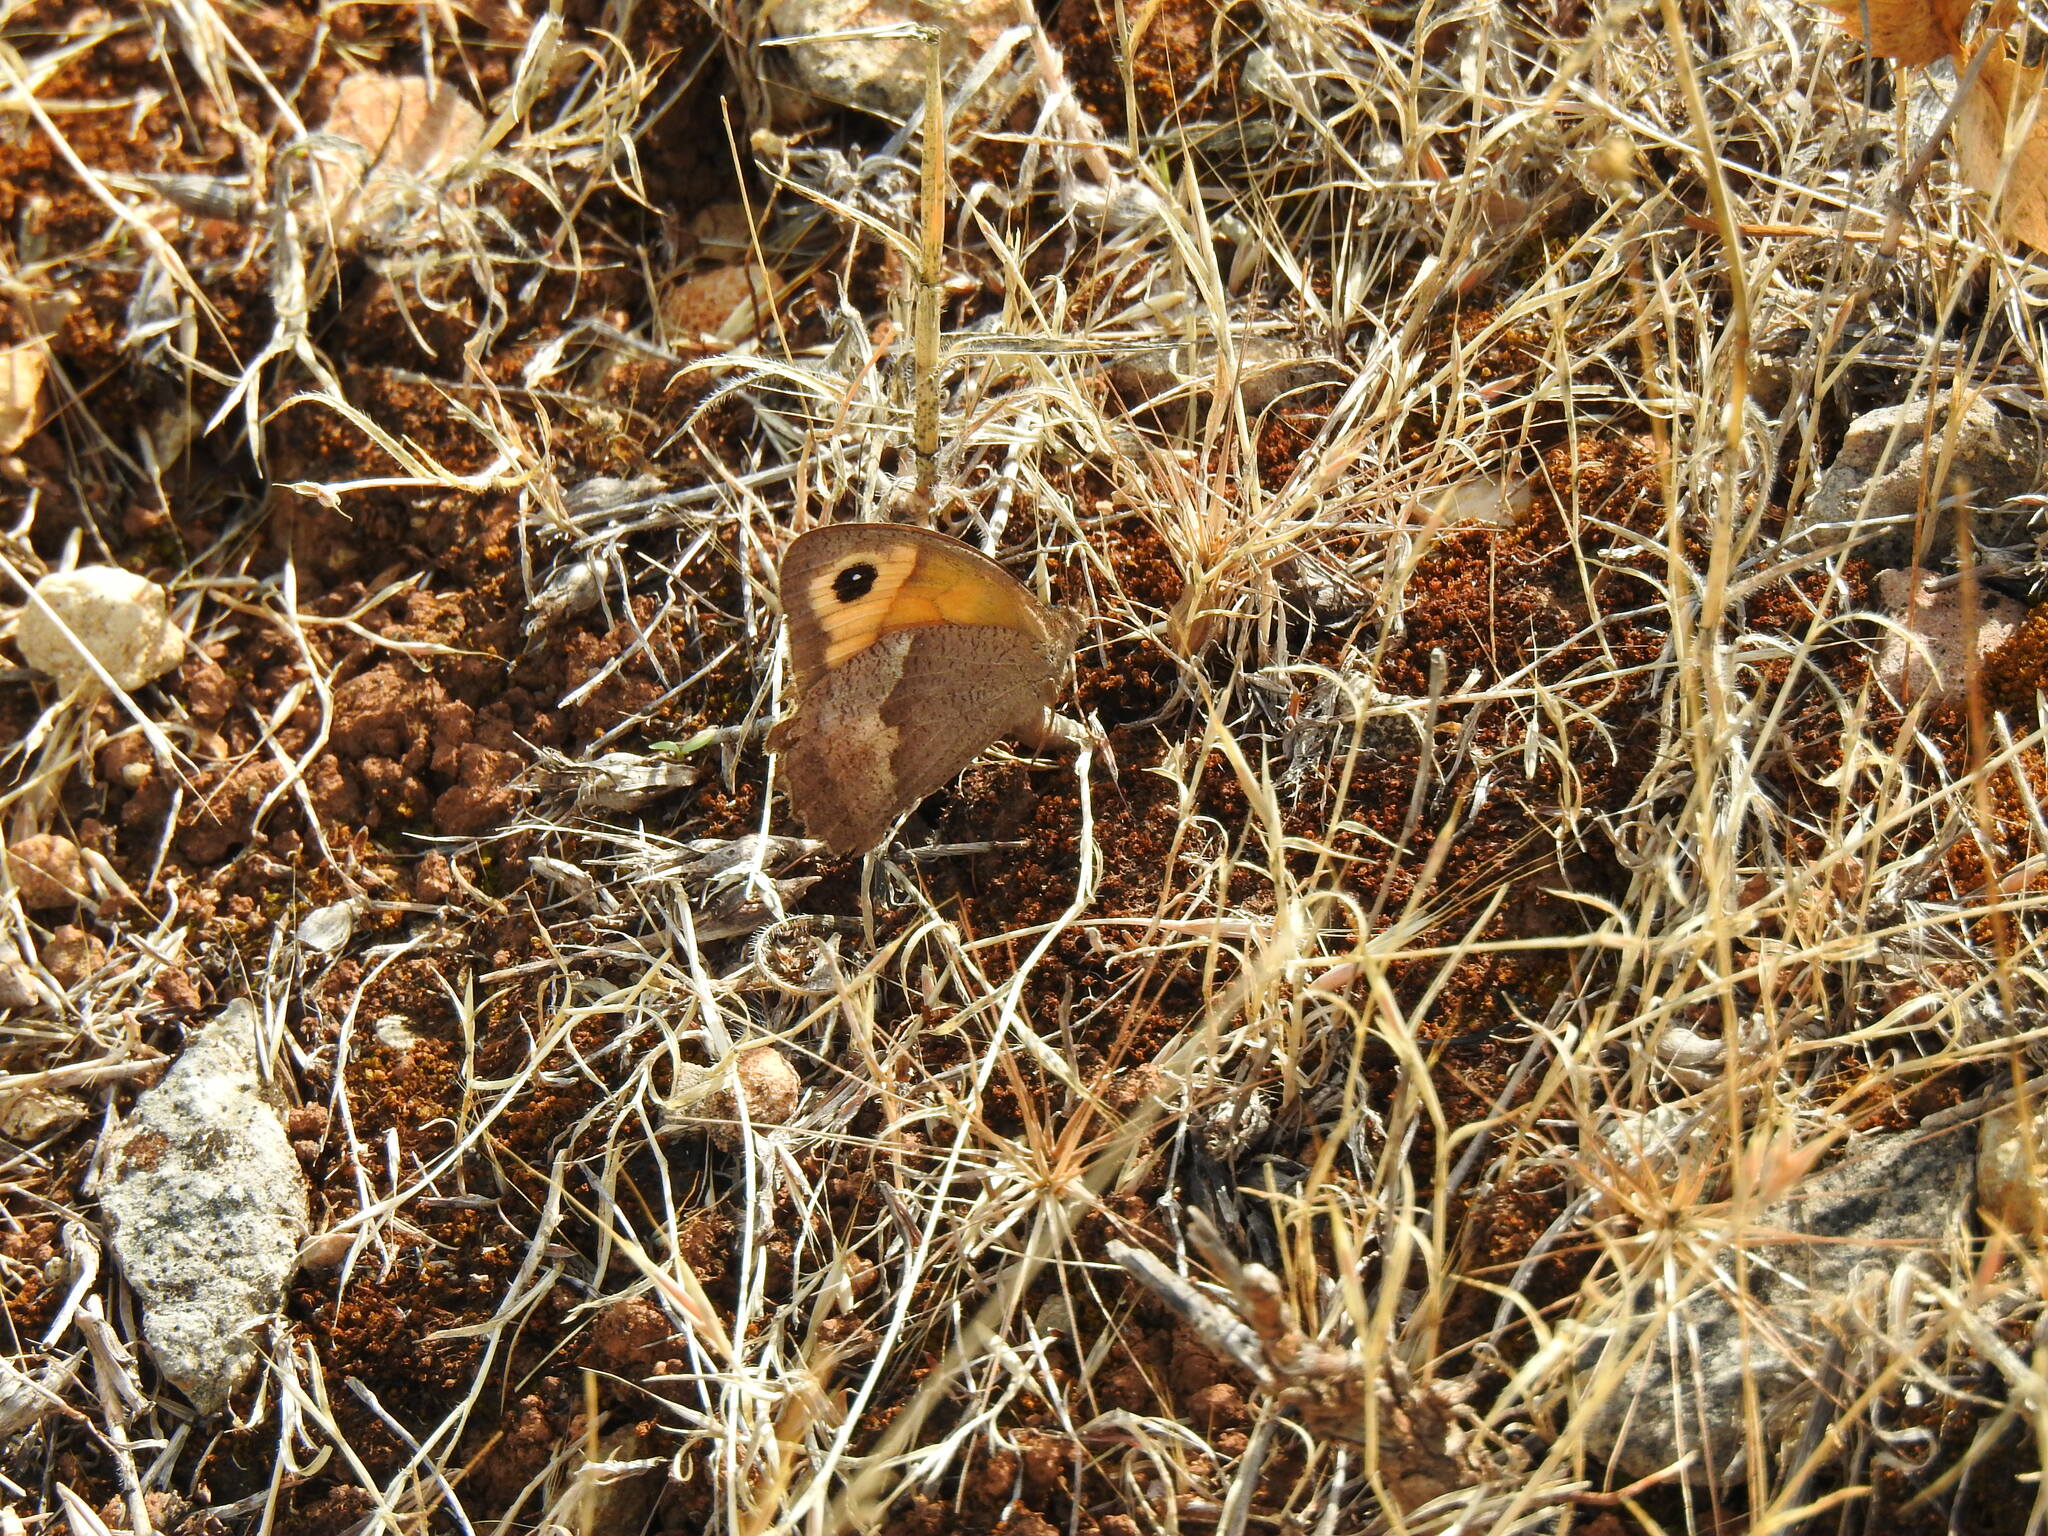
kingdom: Animalia
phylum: Arthropoda
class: Insecta
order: Lepidoptera
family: Nymphalidae
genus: Maniola
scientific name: Maniola jurtina
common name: Meadow brown
